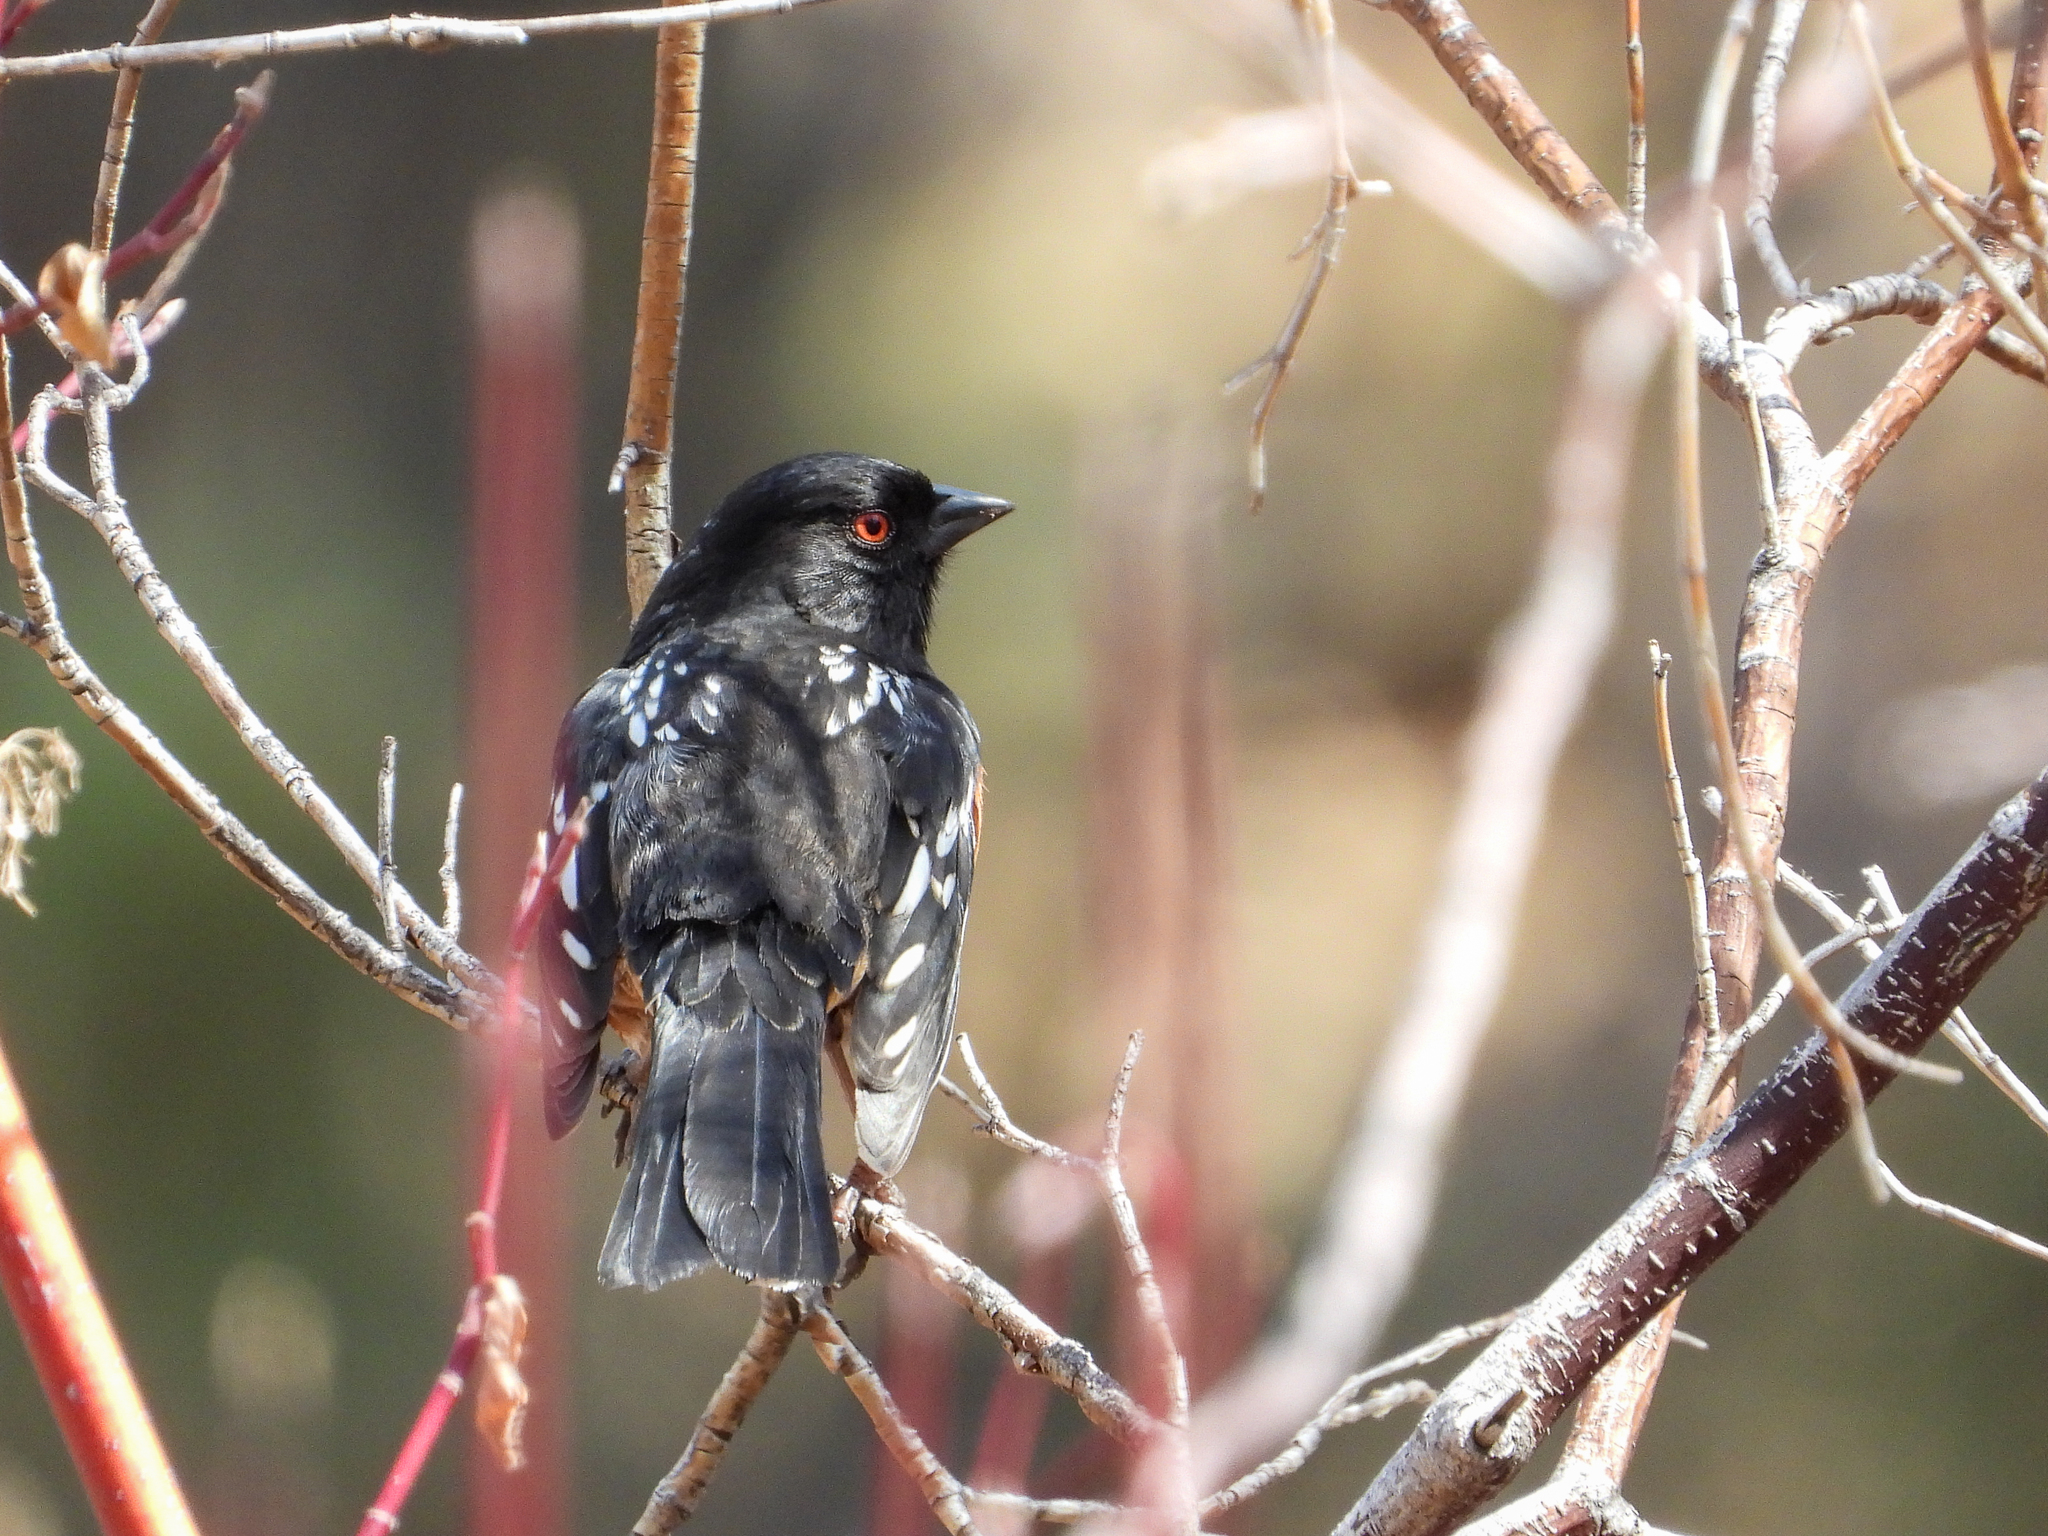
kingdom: Animalia
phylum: Chordata
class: Aves
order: Passeriformes
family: Passerellidae
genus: Pipilo
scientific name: Pipilo maculatus
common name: Spotted towhee
